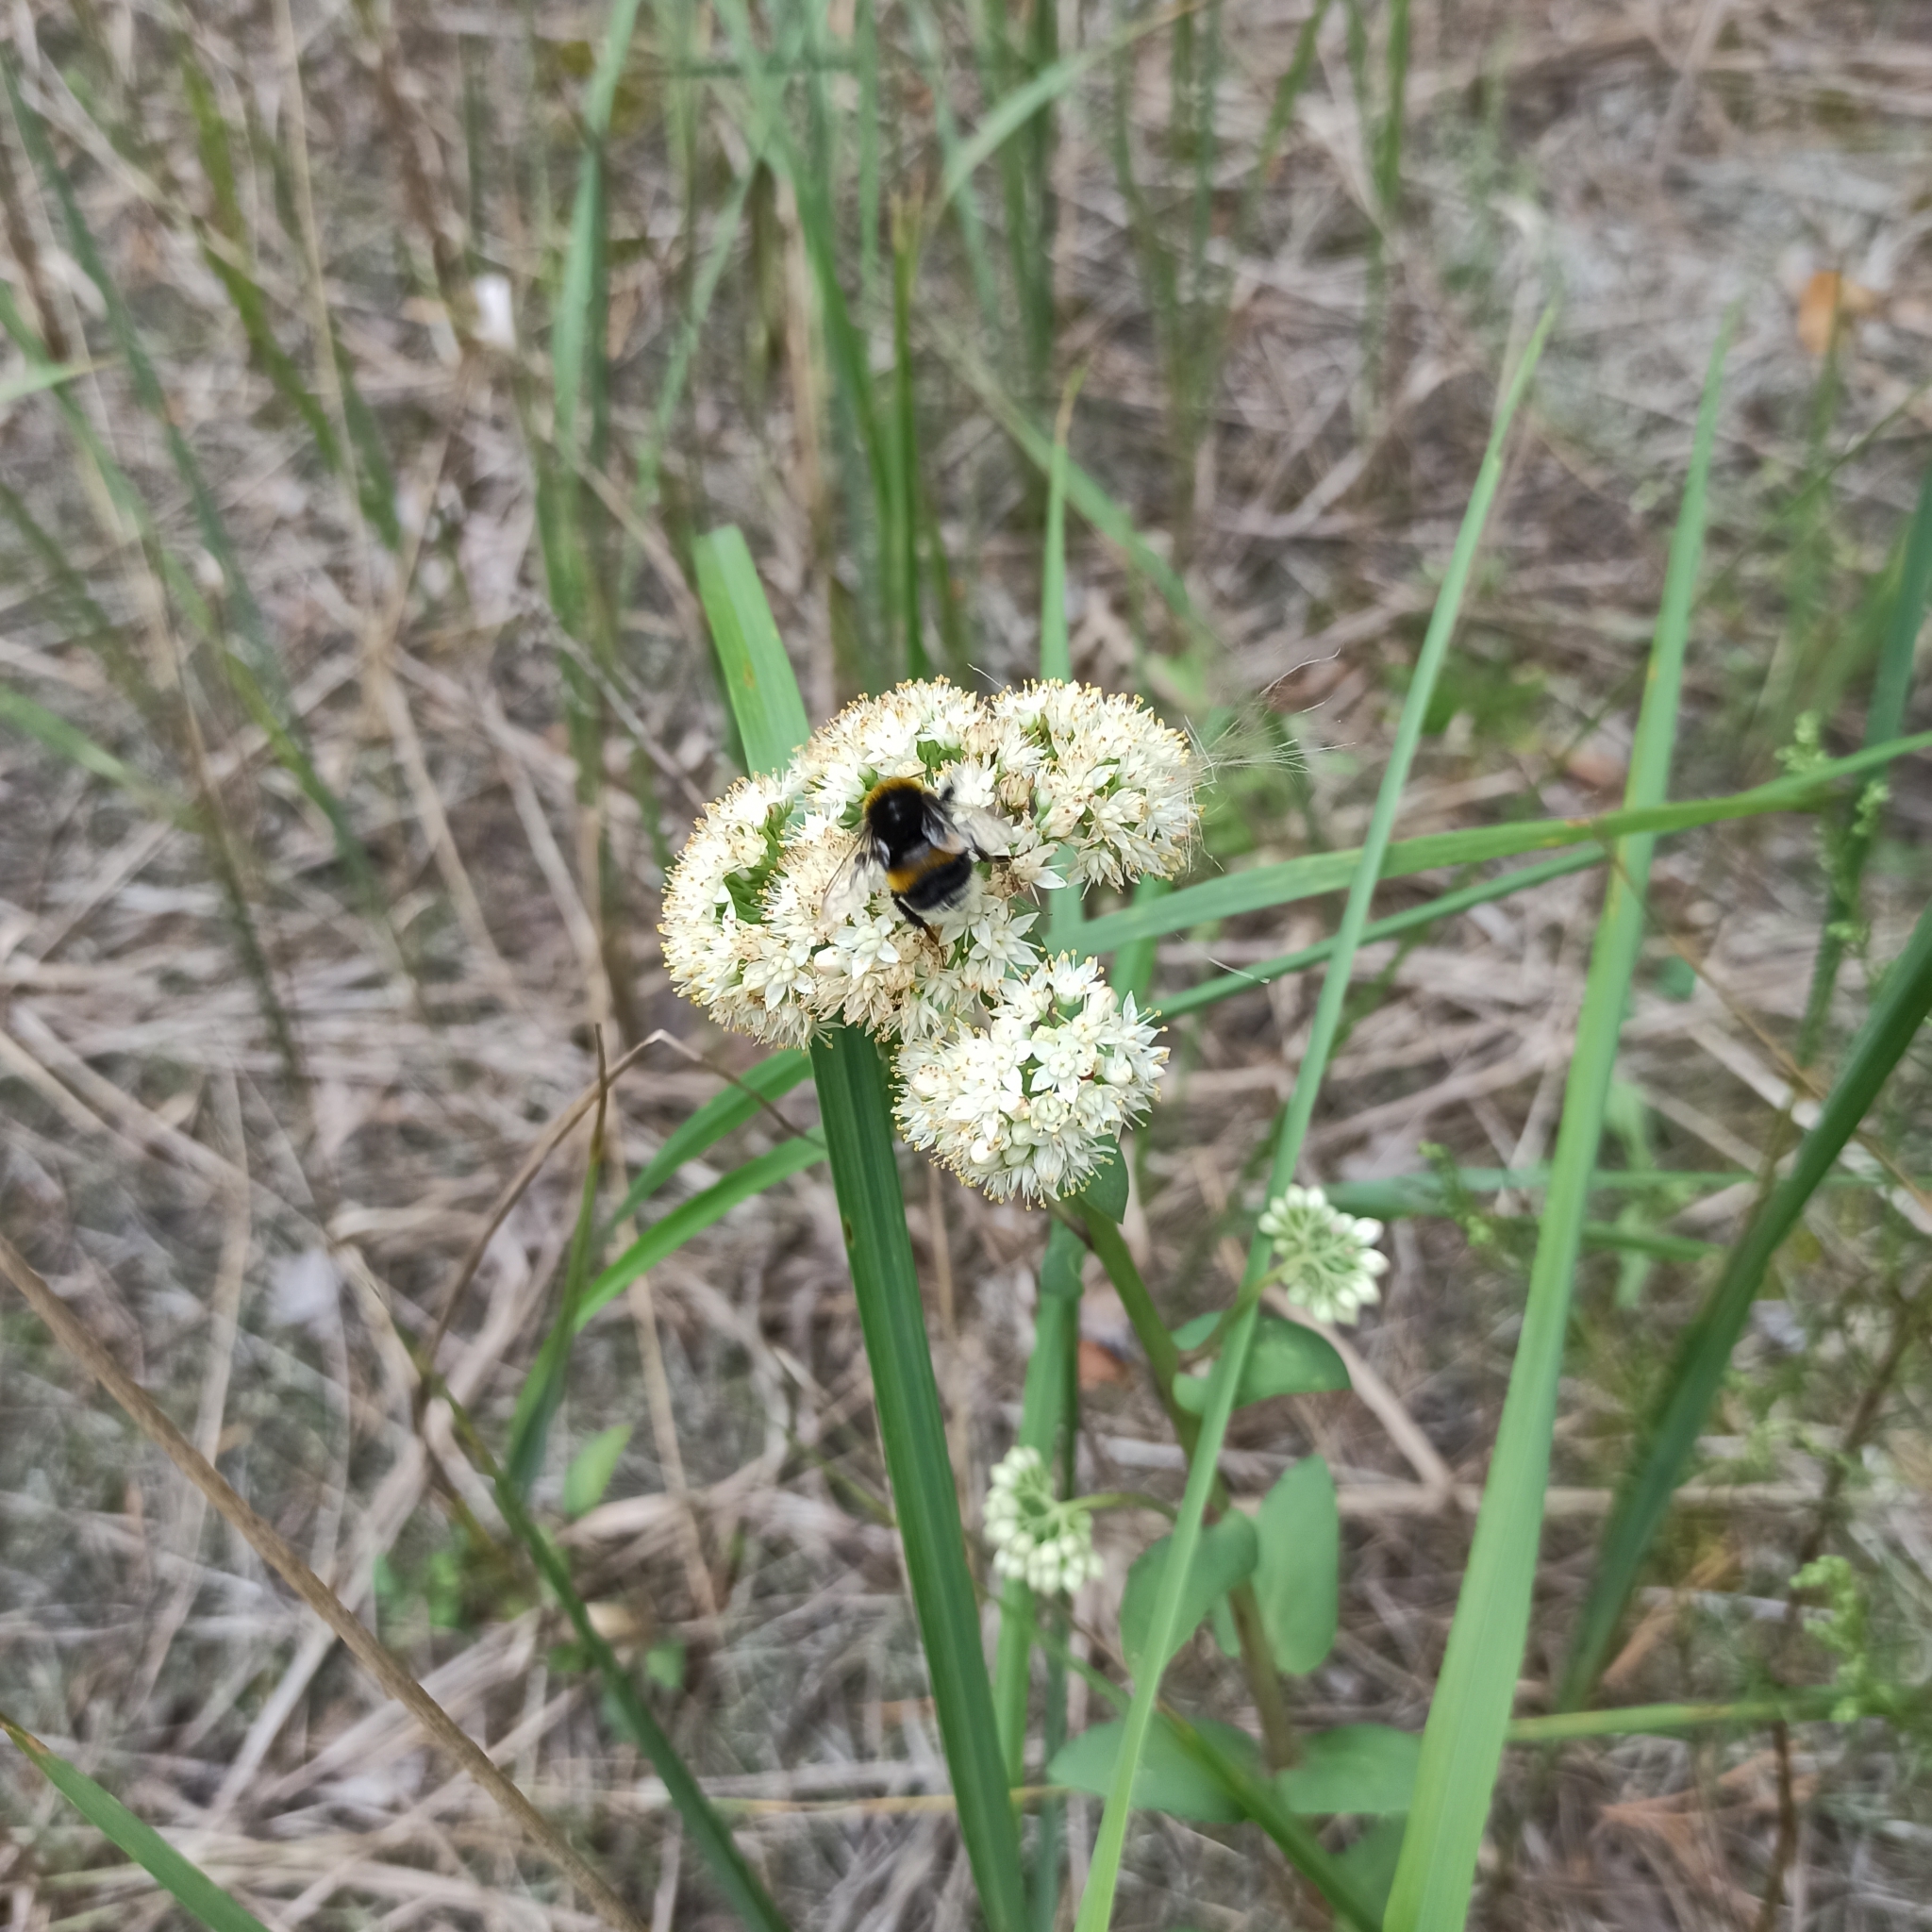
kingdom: Plantae
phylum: Tracheophyta
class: Magnoliopsida
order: Saxifragales
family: Crassulaceae
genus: Hylotelephium
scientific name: Hylotelephium maximum
